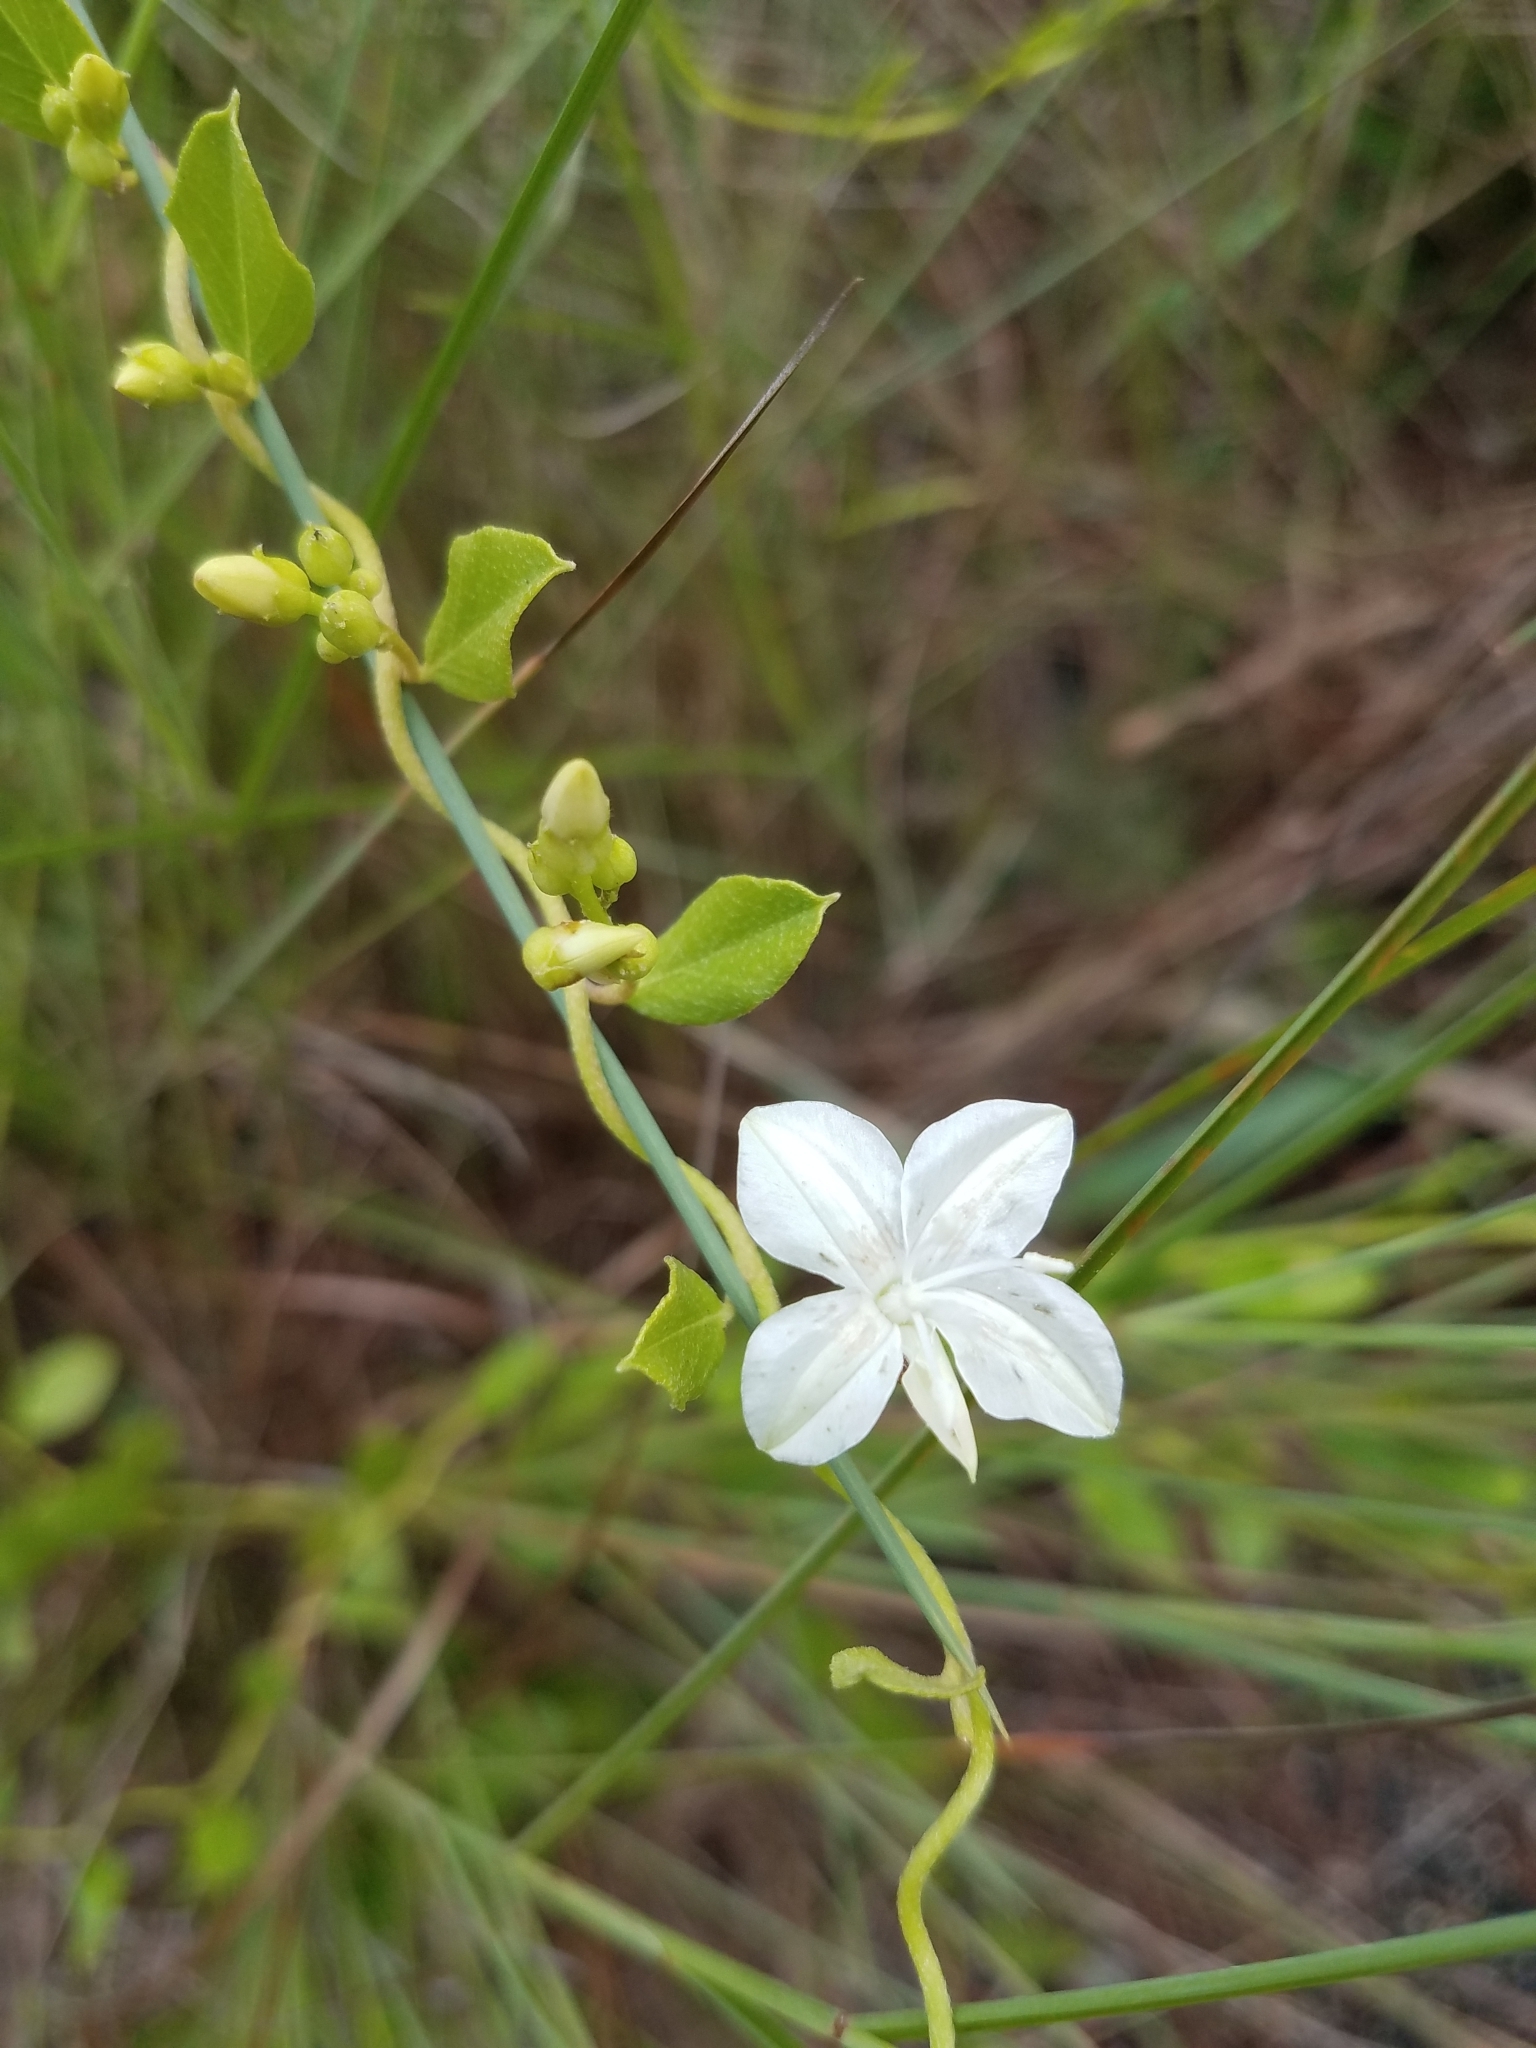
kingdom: Plantae
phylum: Tracheophyta
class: Magnoliopsida
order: Solanales
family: Convolvulaceae
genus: Jacquemontia
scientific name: Jacquemontia curtissii
